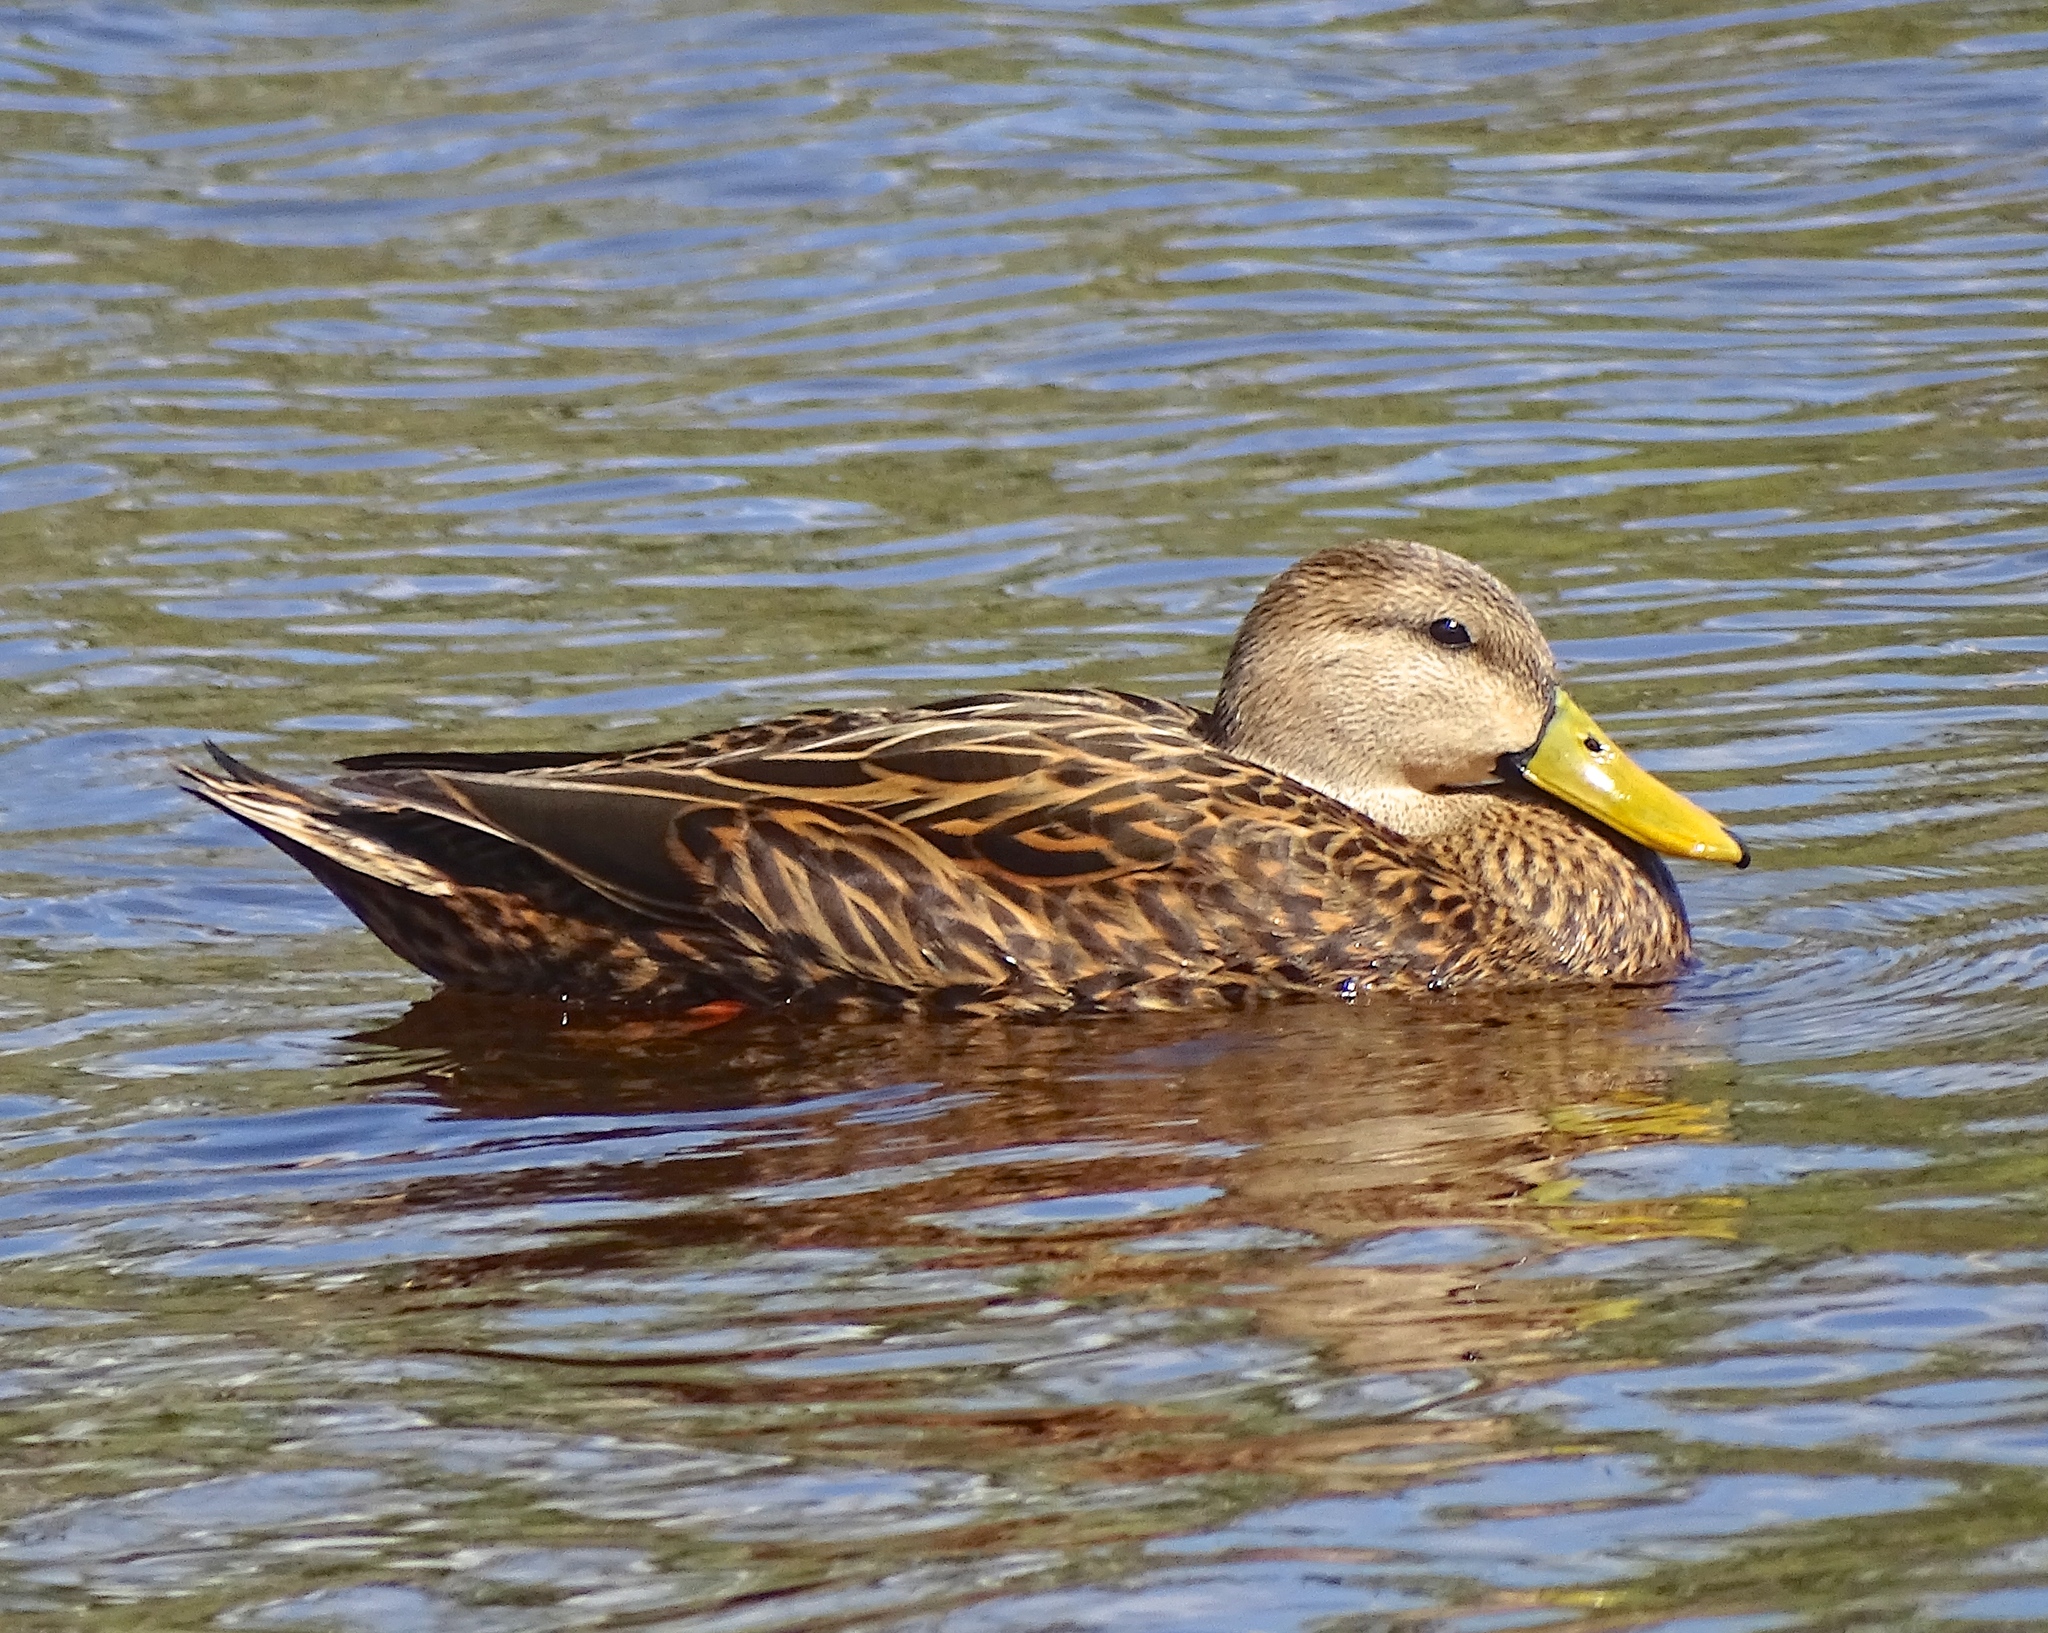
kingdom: Animalia
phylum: Chordata
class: Aves
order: Anseriformes
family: Anatidae
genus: Anas
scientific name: Anas
